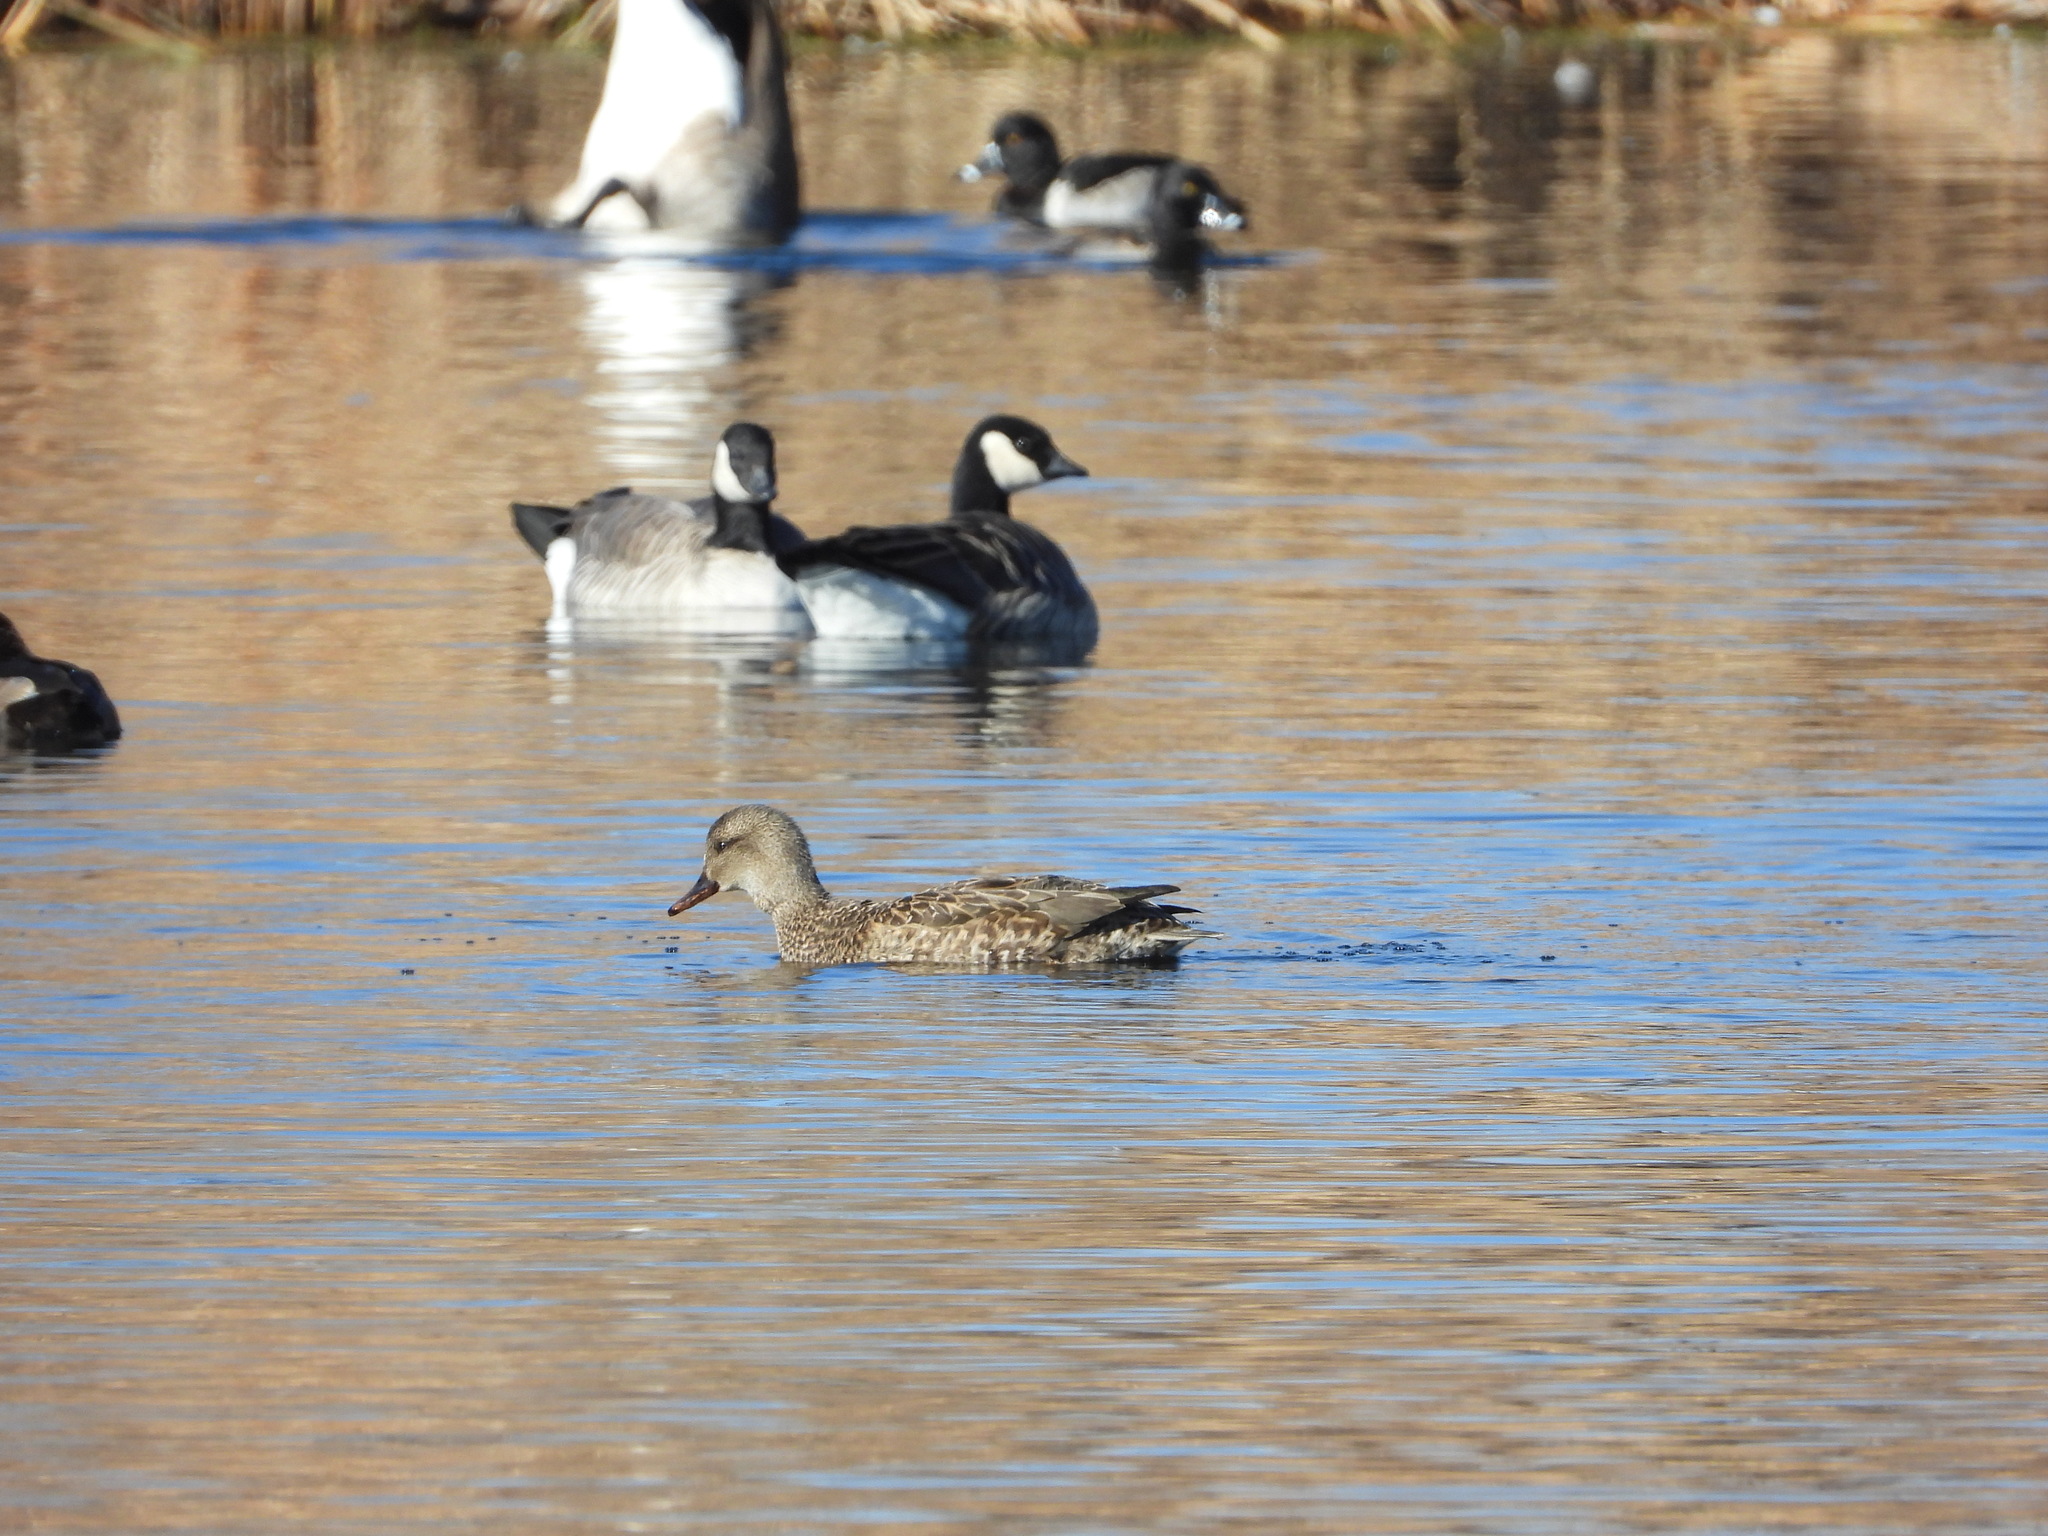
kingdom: Animalia
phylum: Chordata
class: Aves
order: Anseriformes
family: Anatidae
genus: Mareca
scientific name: Mareca strepera
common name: Gadwall
